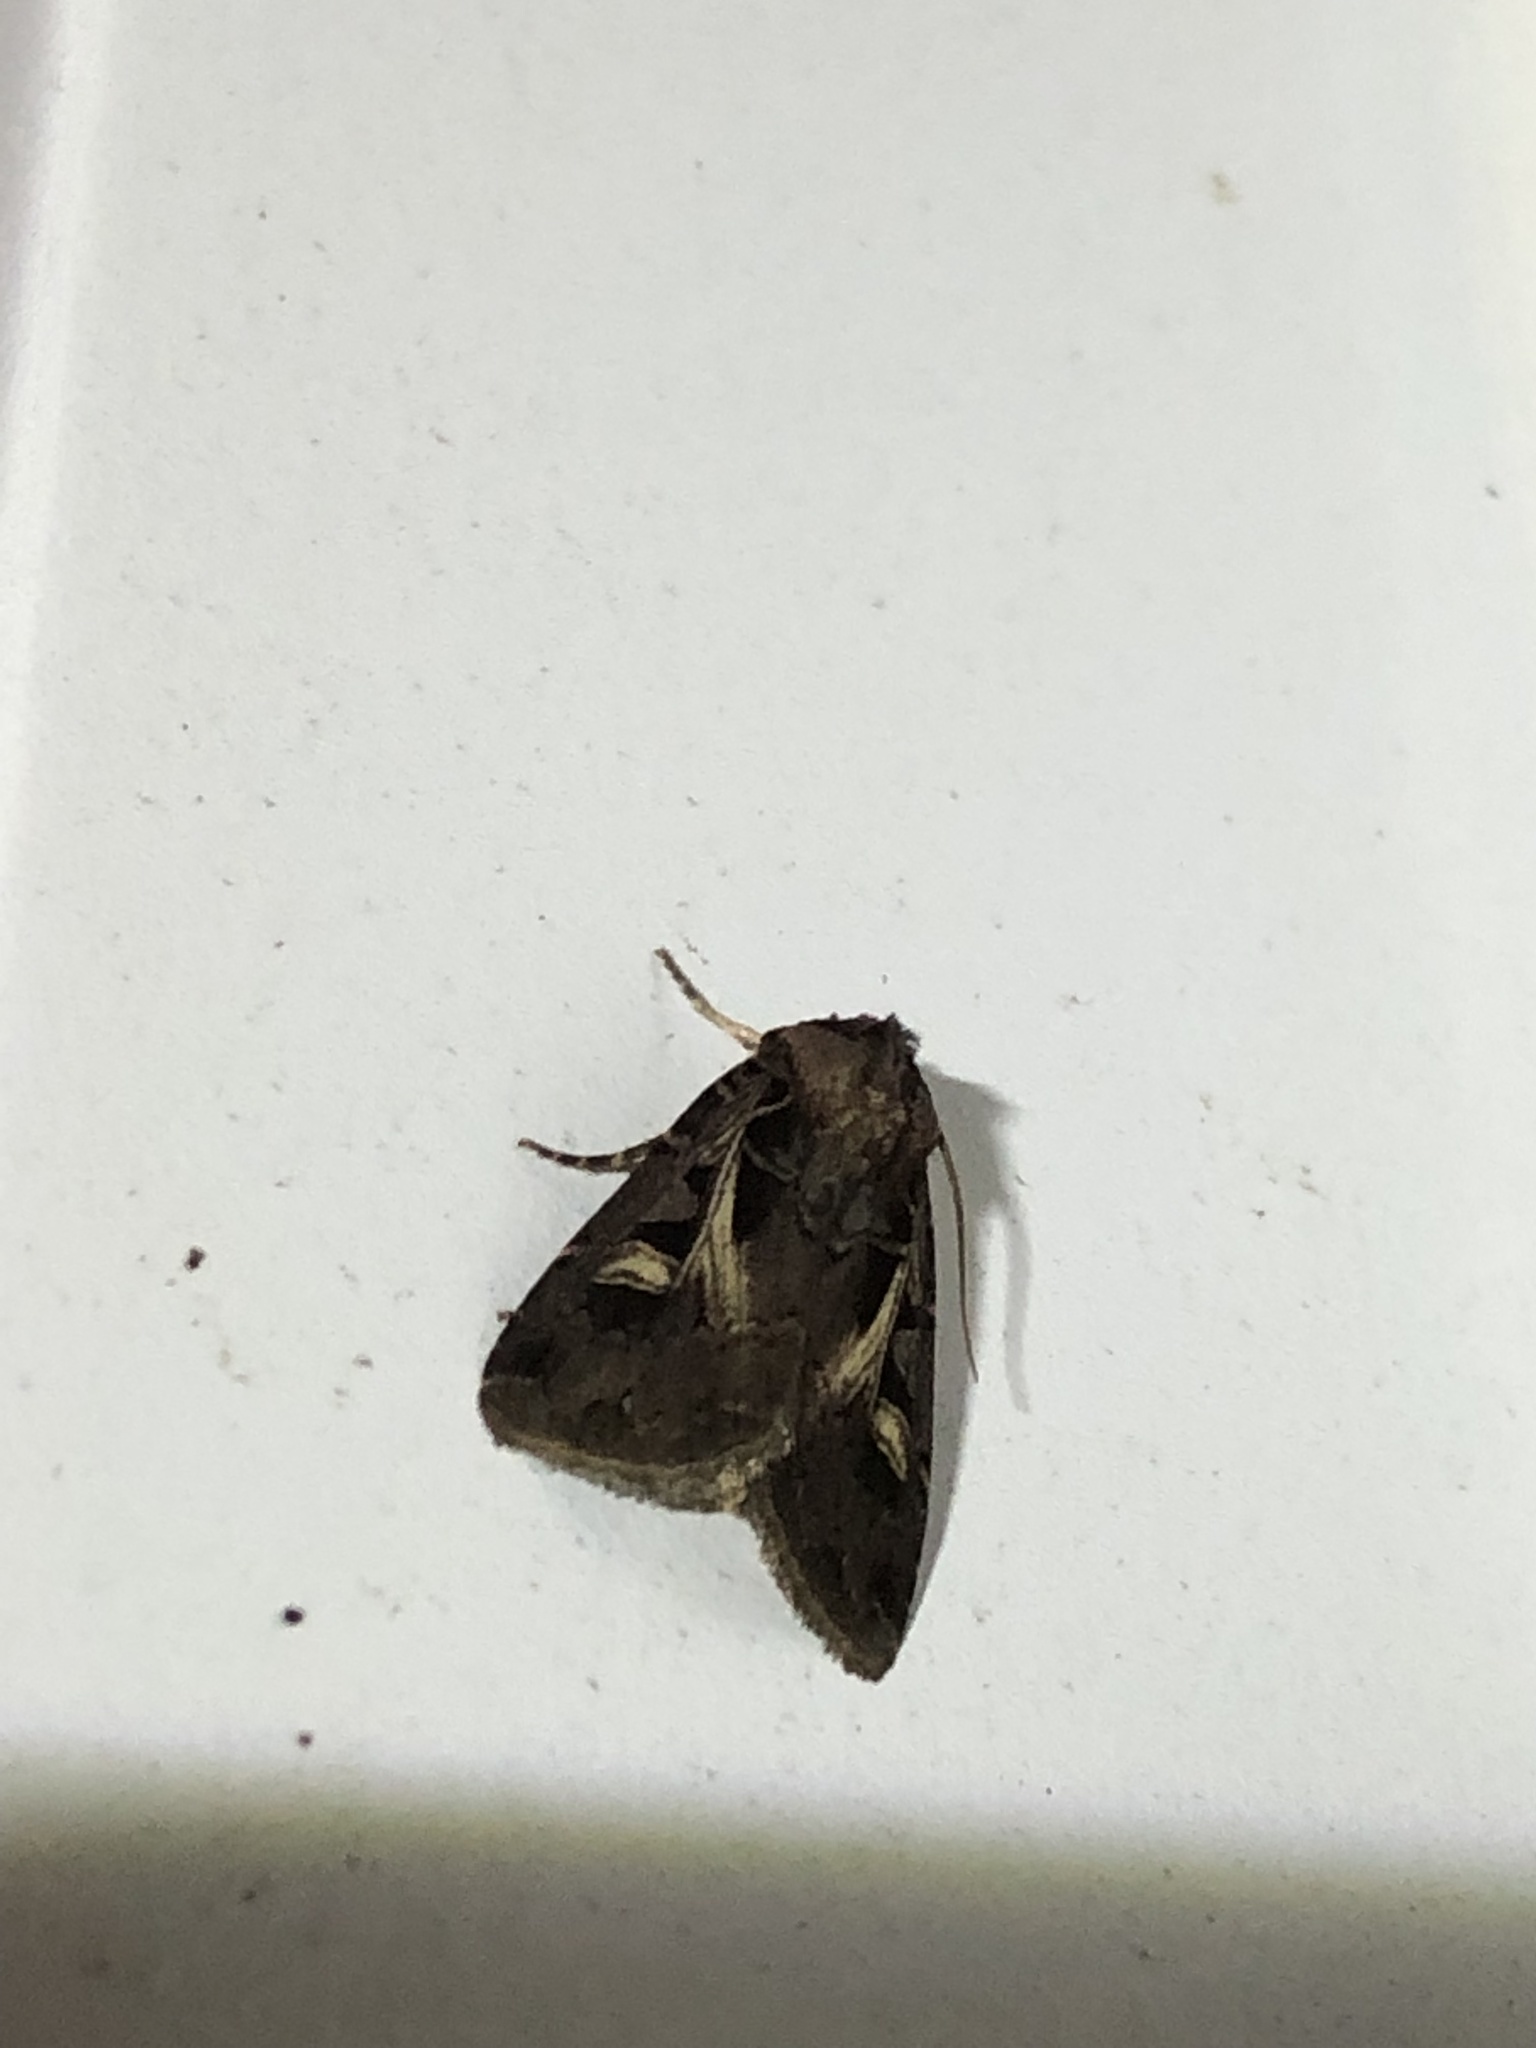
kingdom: Animalia
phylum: Arthropoda
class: Insecta
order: Lepidoptera
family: Noctuidae
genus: Feltia
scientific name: Feltia herilis
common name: Master's dart
